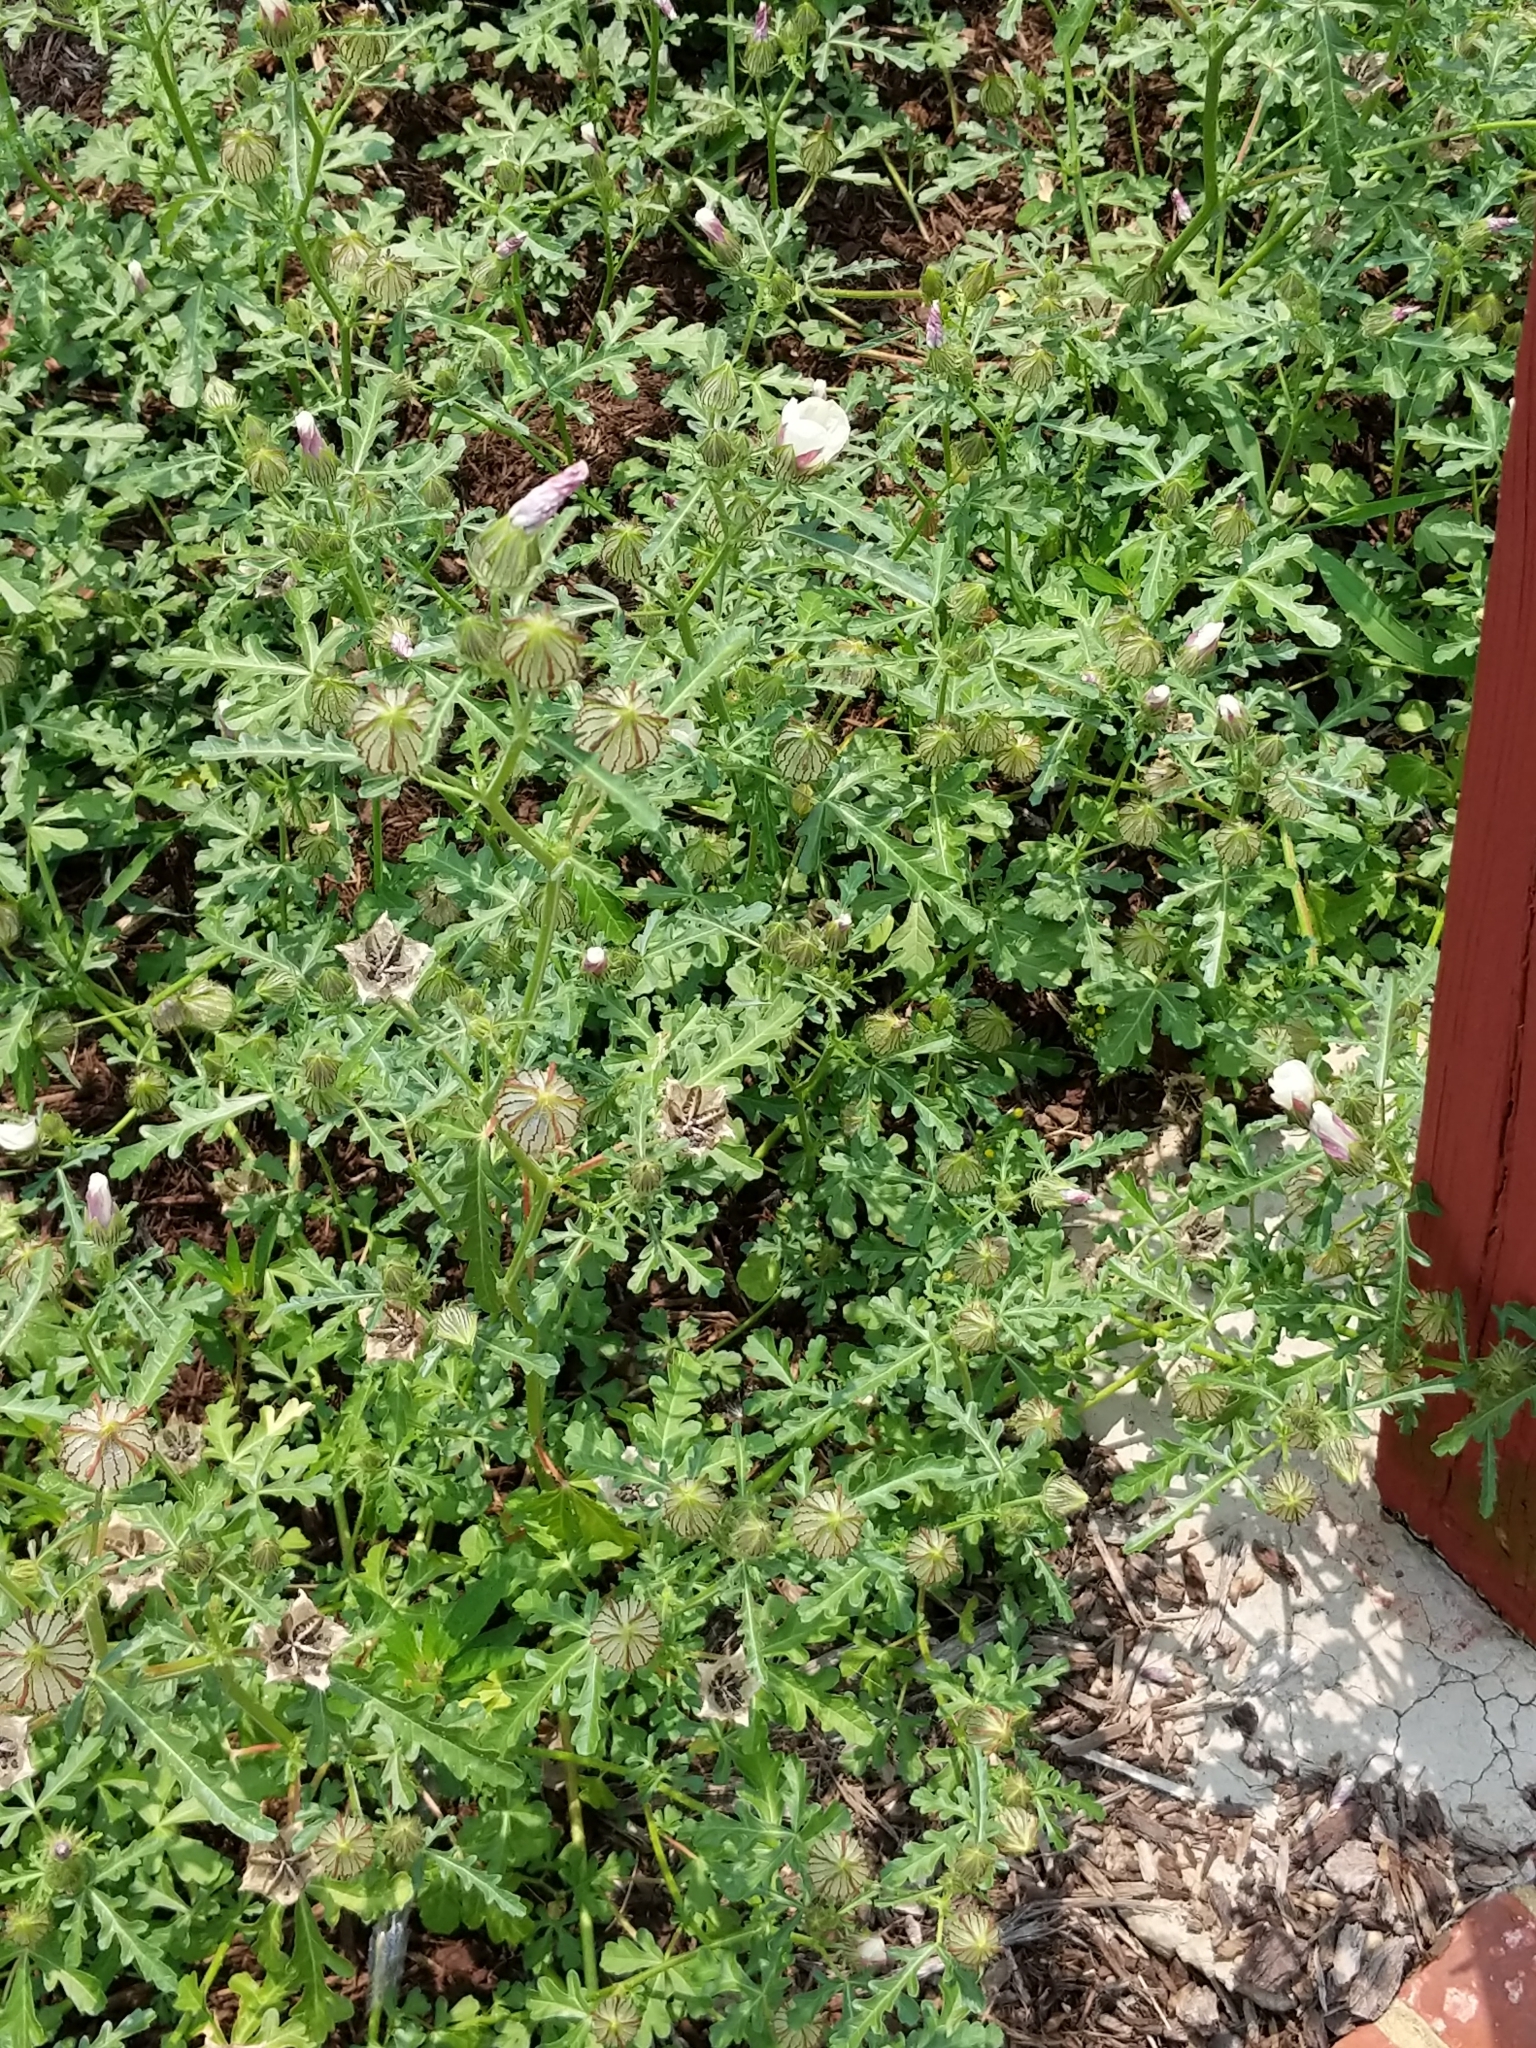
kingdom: Plantae
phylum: Tracheophyta
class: Magnoliopsida
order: Malvales
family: Malvaceae
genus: Hibiscus
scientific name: Hibiscus trionum
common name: Bladder ketmia
